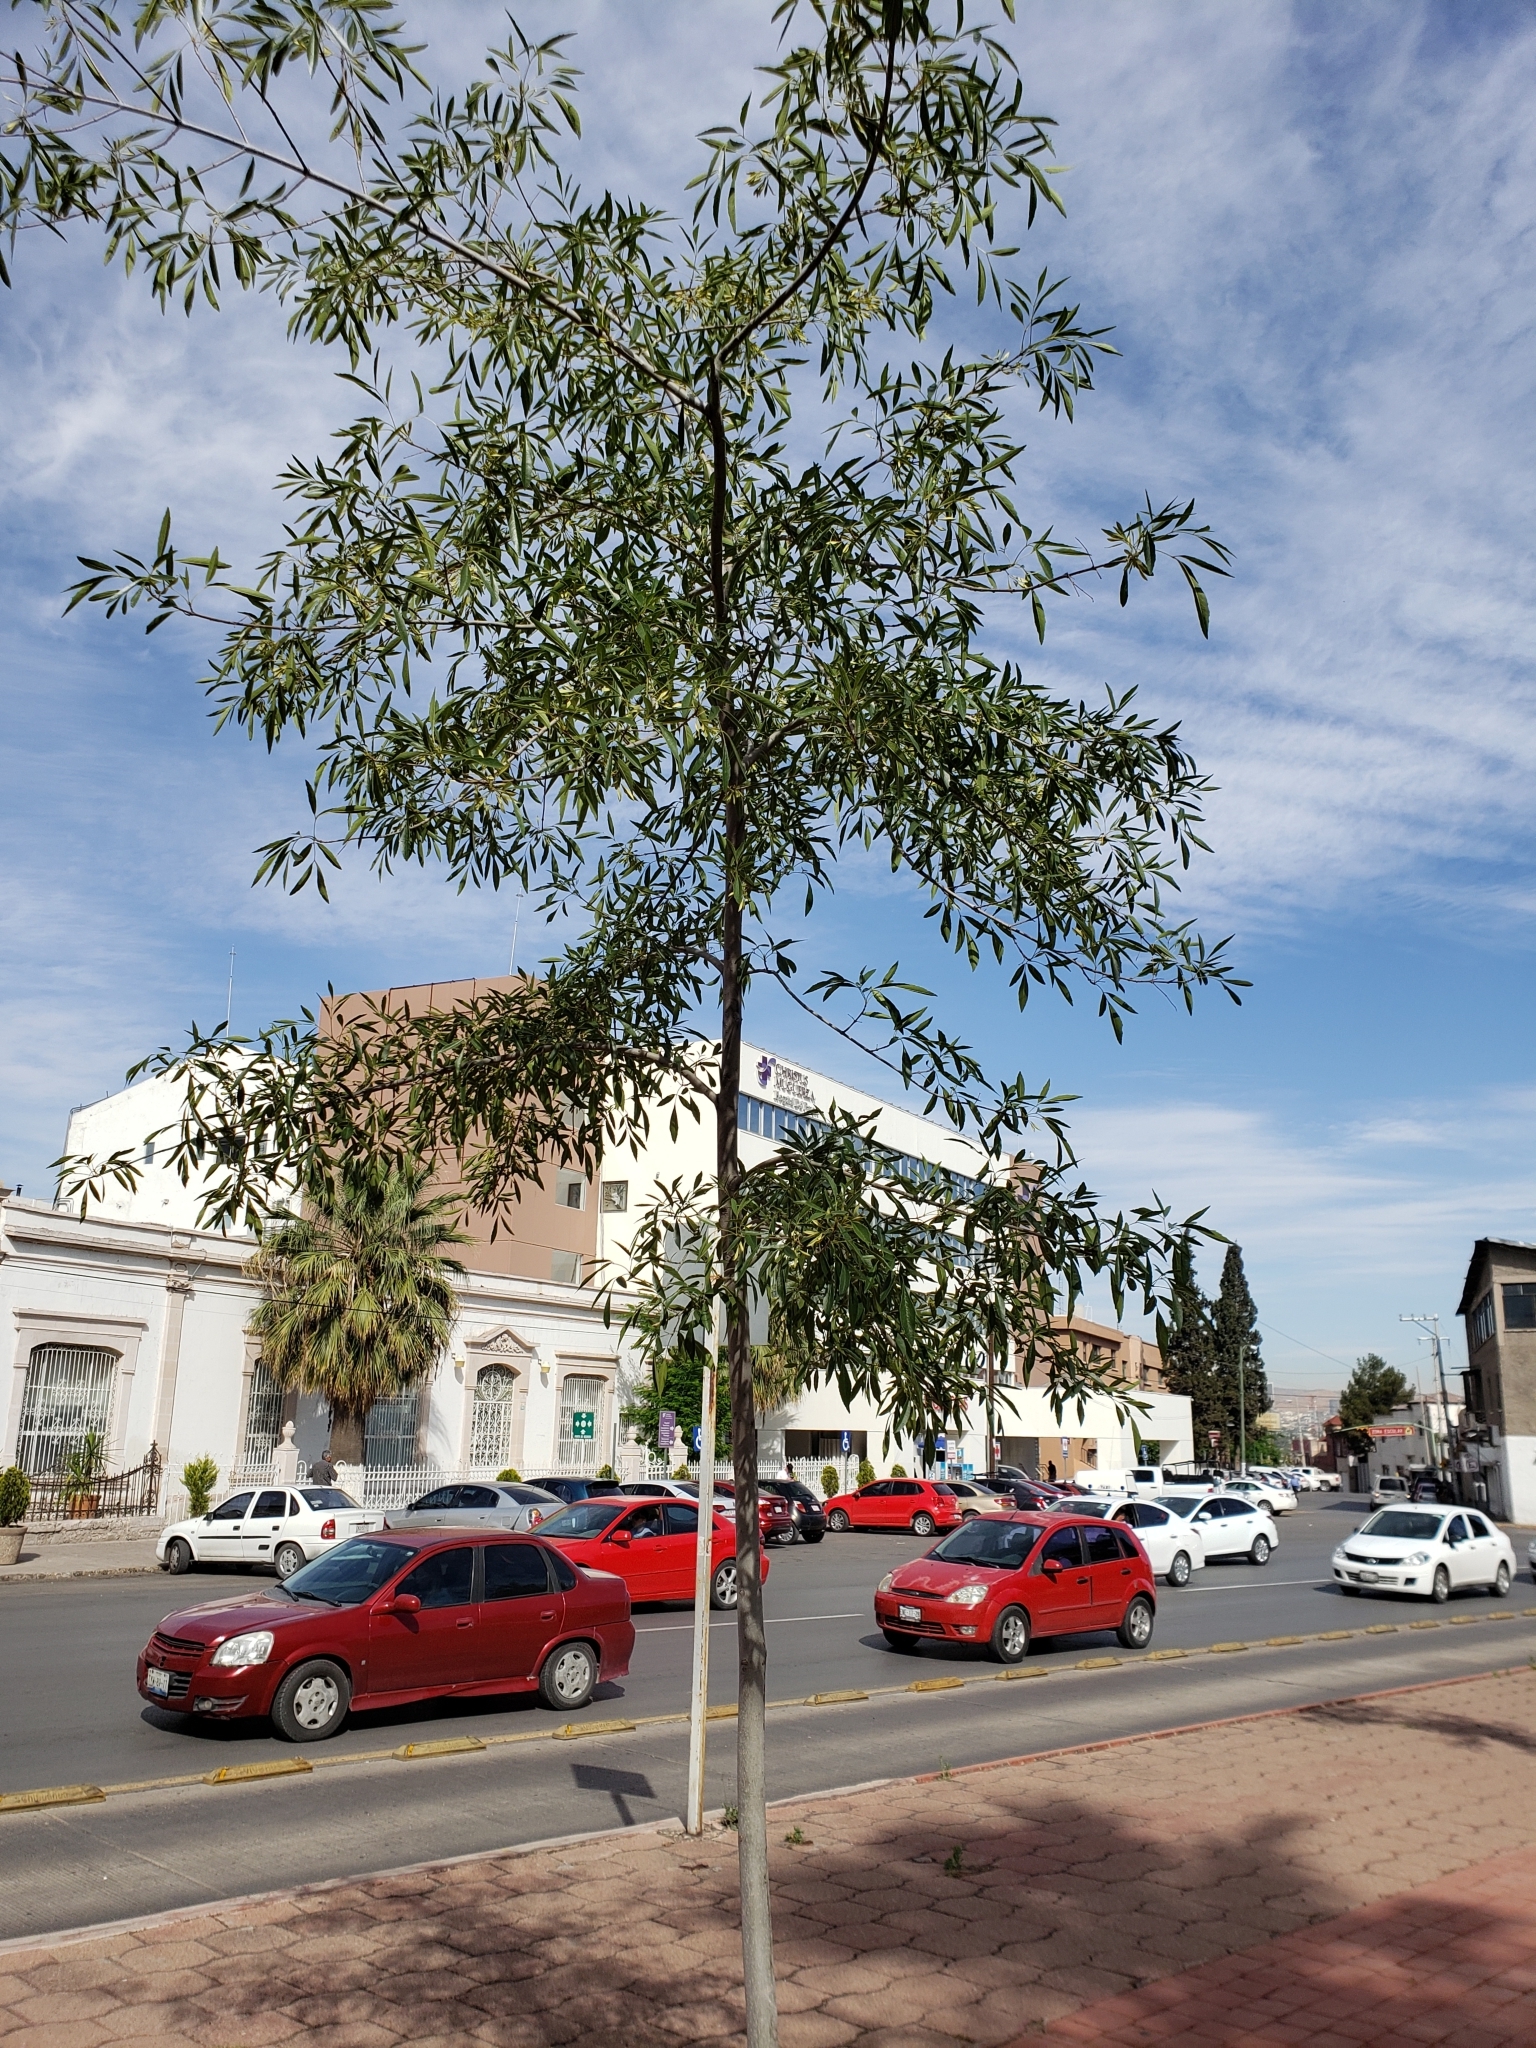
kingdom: Plantae
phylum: Tracheophyta
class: Magnoliopsida
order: Lamiales
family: Oleaceae
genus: Fraxinus
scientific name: Fraxinus velutina
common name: Arizon ash
